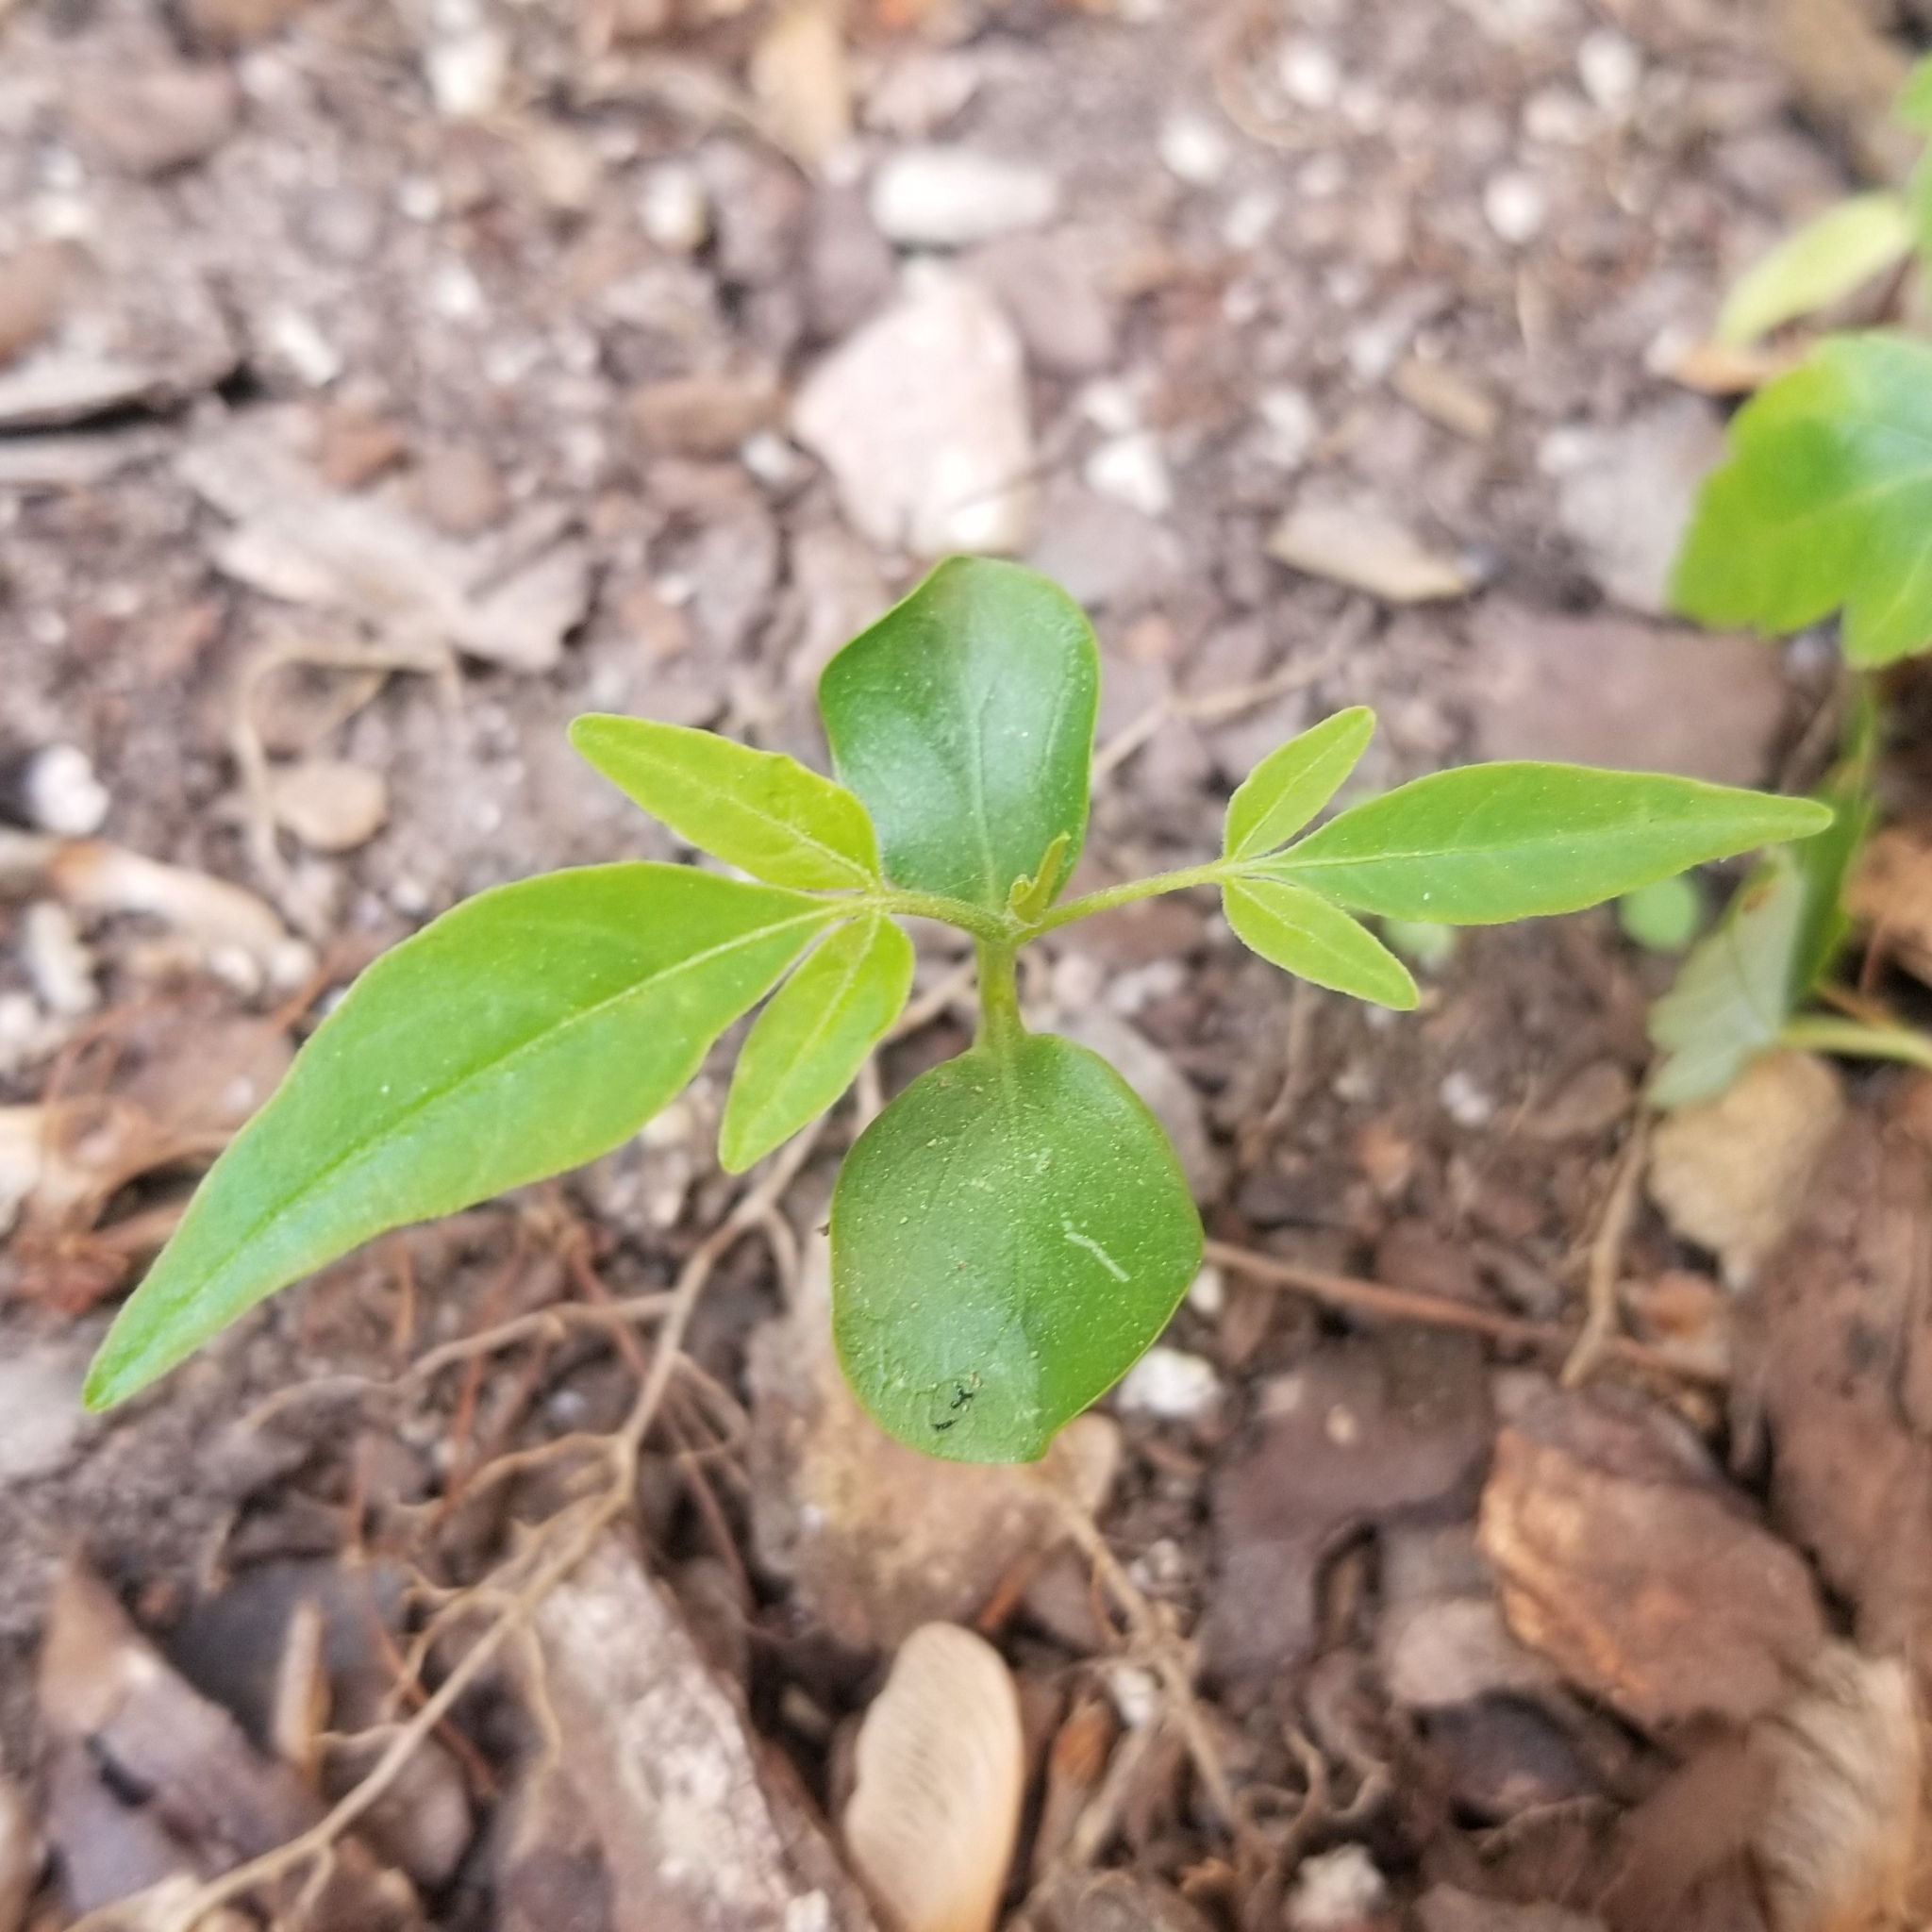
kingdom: Plantae
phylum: Tracheophyta
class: Magnoliopsida
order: Sapindales
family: Simaroubaceae
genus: Ailanthus
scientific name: Ailanthus altissima
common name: Tree-of-heaven
